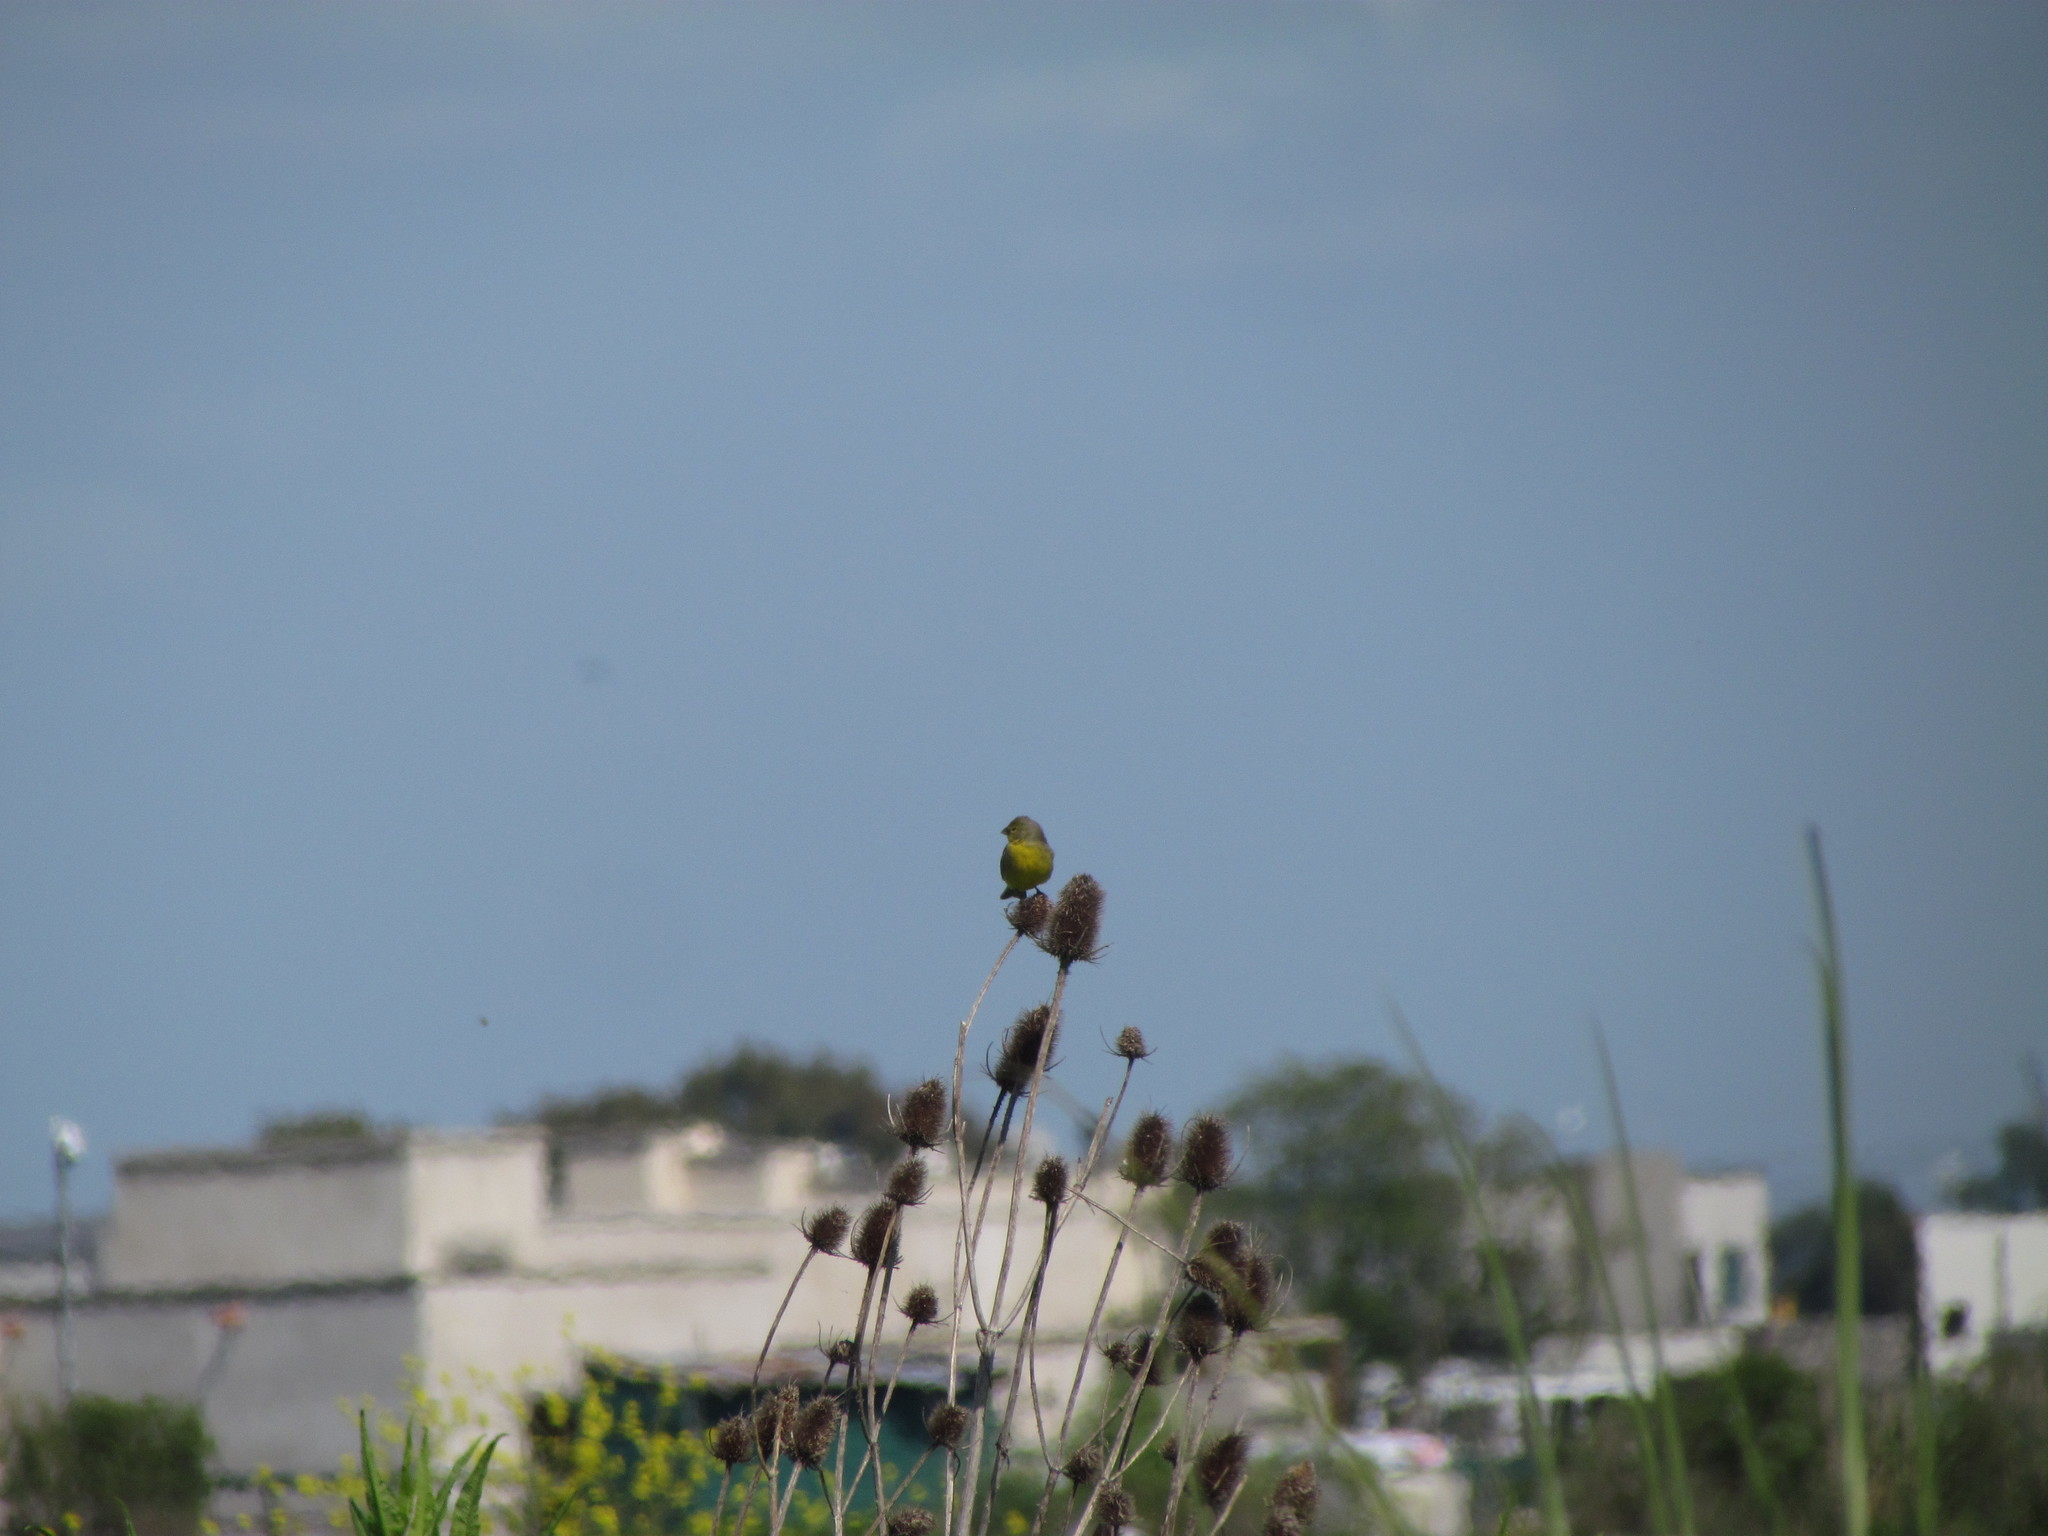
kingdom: Animalia
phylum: Chordata
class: Aves
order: Passeriformes
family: Thraupidae
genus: Sicalis
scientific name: Sicalis luteola
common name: Grassland yellow-finch
